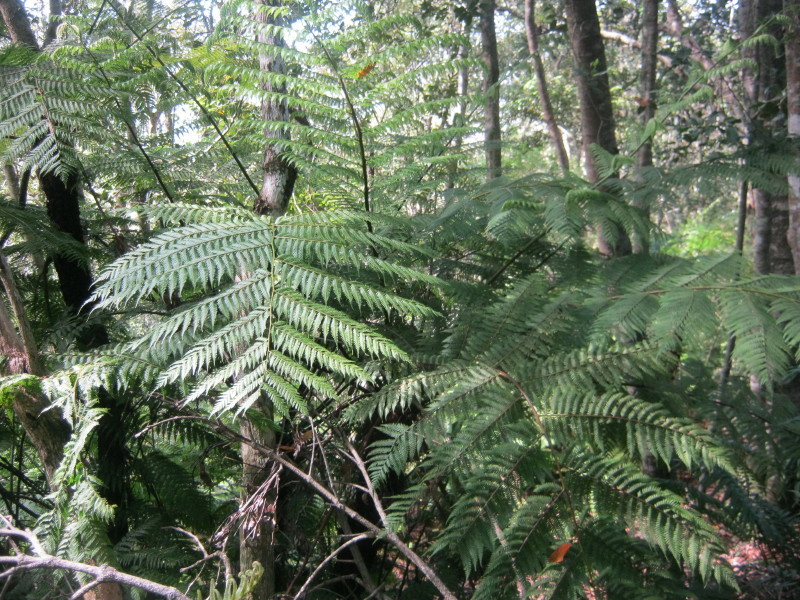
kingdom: Plantae
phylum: Tracheophyta
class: Polypodiopsida
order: Cyatheales
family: Cyatheaceae
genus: Gymnosphaera
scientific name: Gymnosphaera capensis
